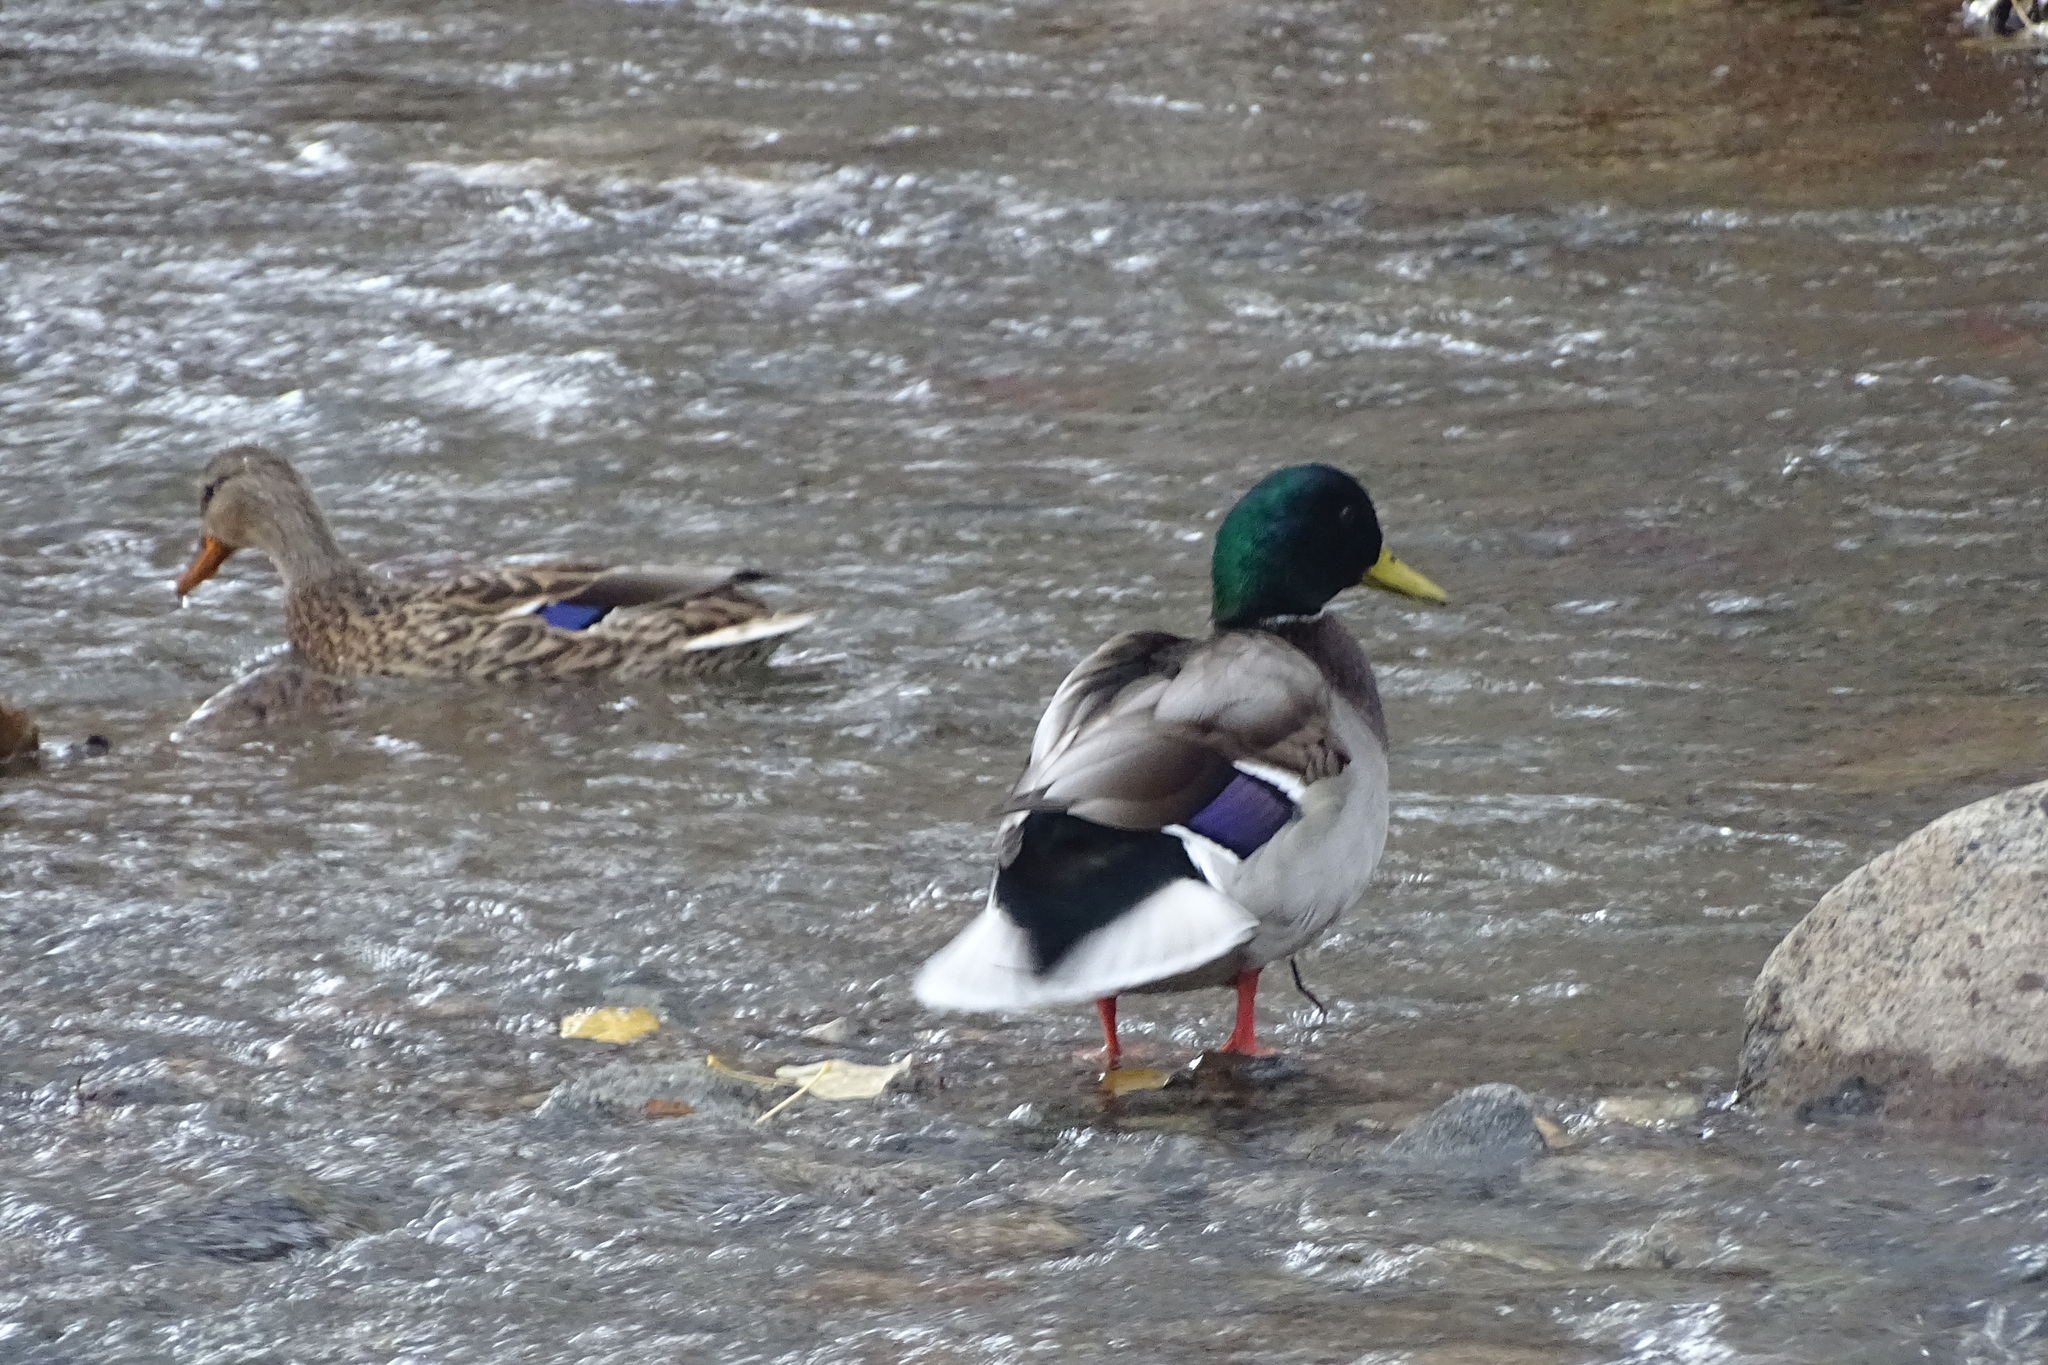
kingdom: Animalia
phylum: Chordata
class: Aves
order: Anseriformes
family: Anatidae
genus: Anas
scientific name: Anas platyrhynchos
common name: Mallard
